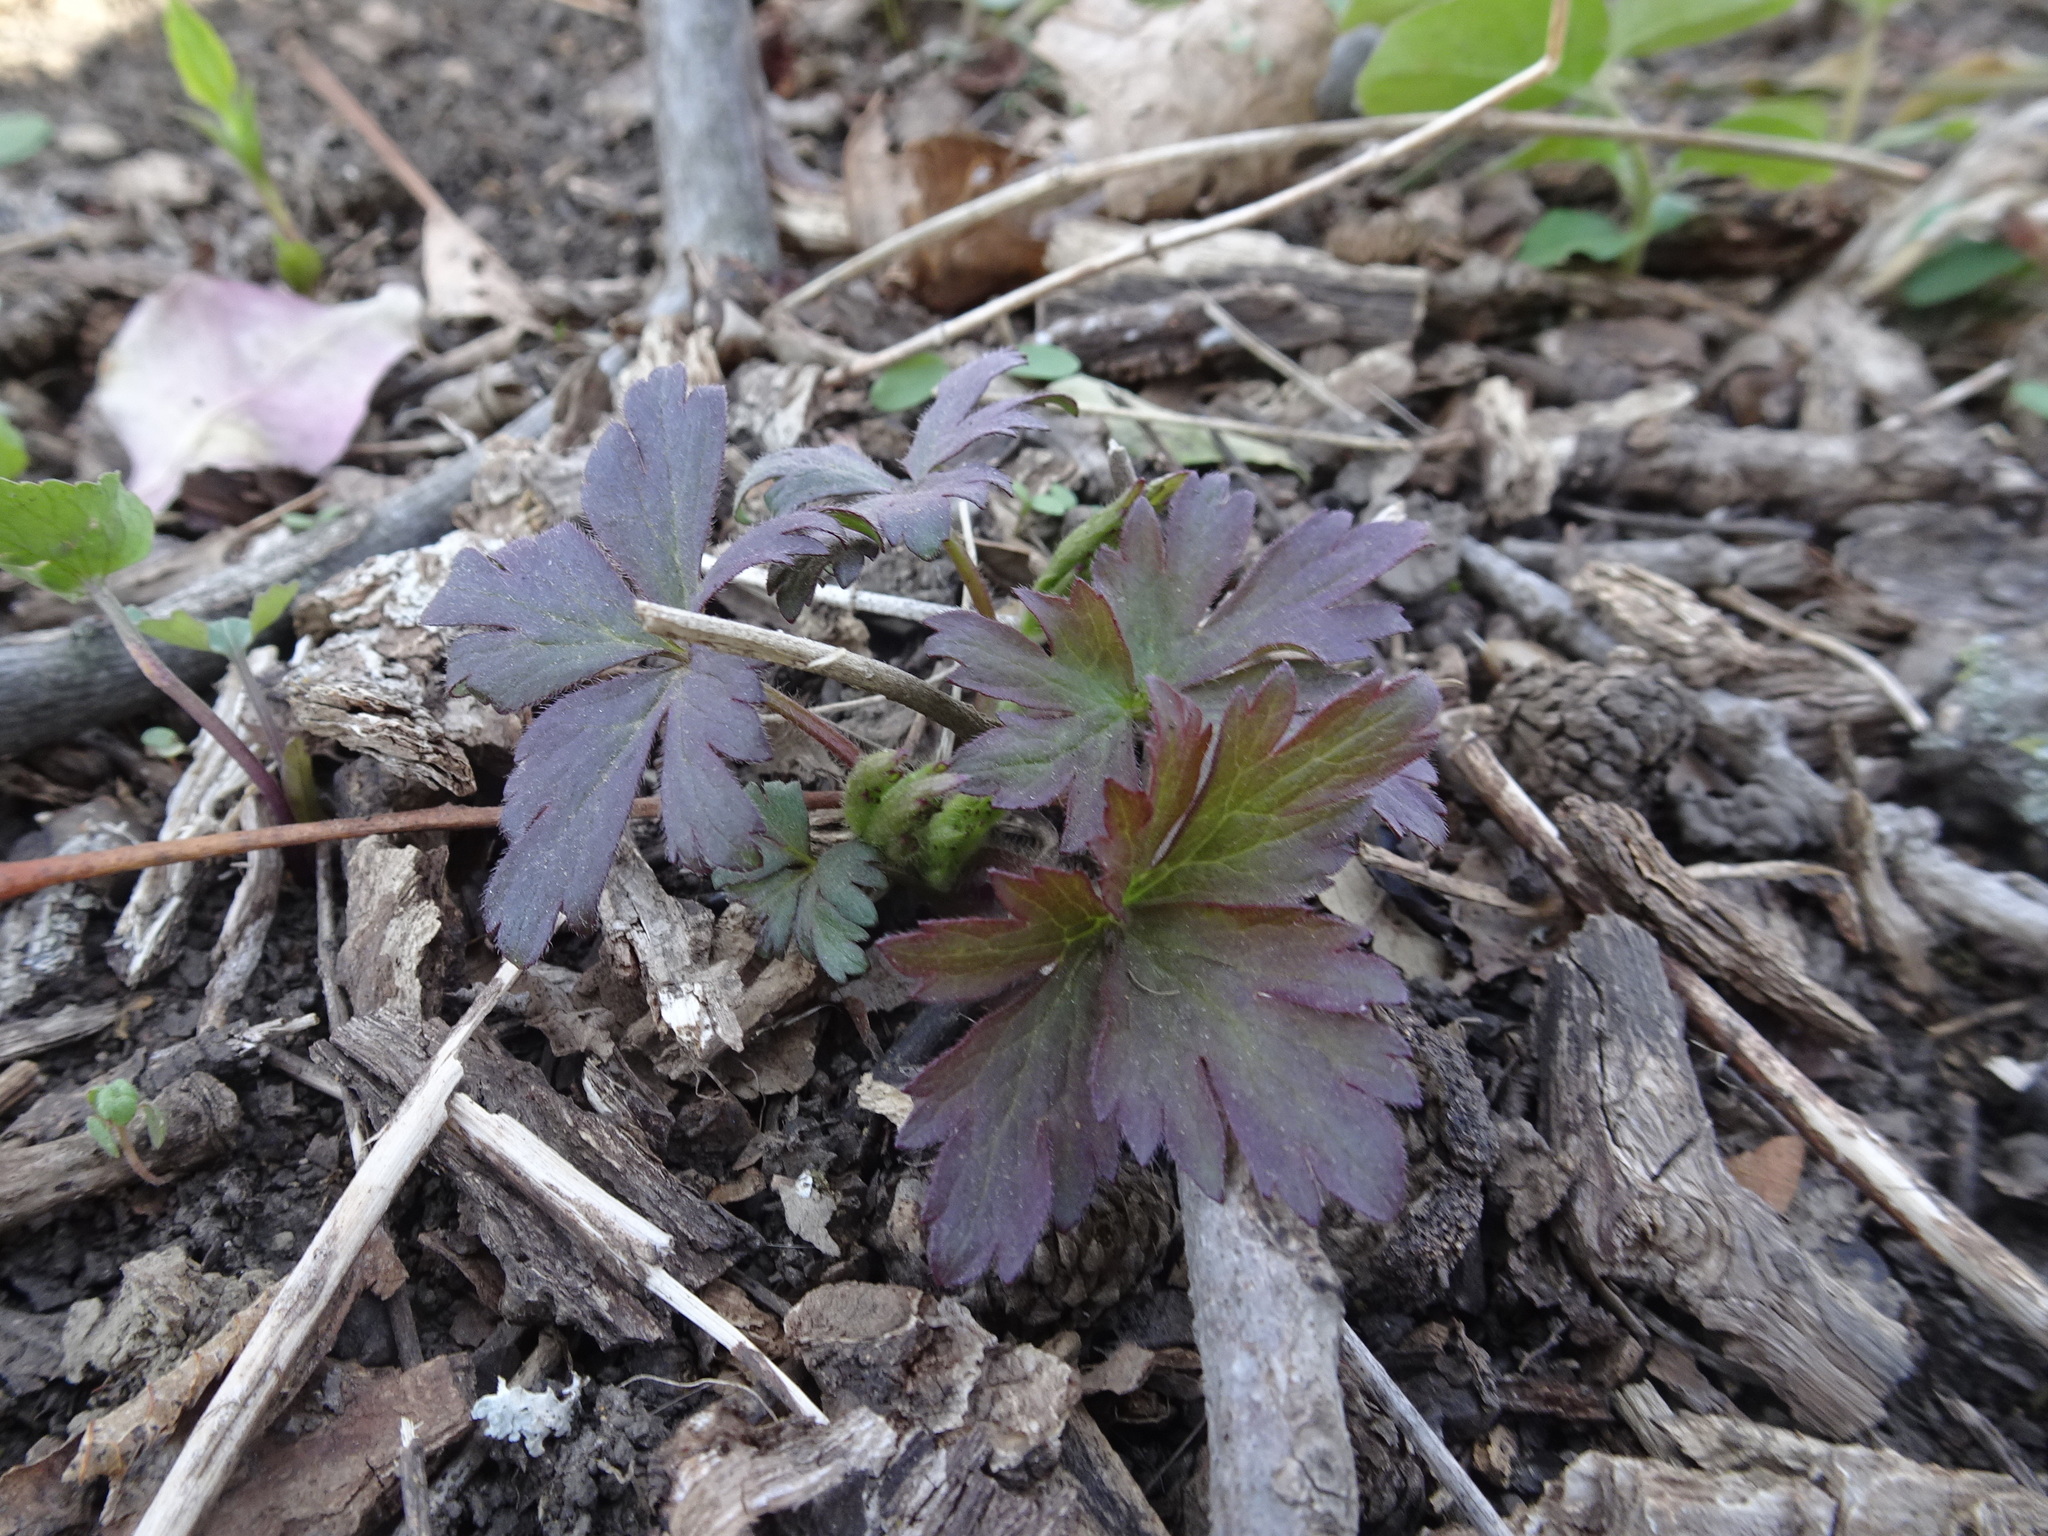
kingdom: Plantae
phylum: Tracheophyta
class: Magnoliopsida
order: Ranunculales
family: Ranunculaceae
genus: Anemone
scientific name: Anemone virginiana
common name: Tall anemone
